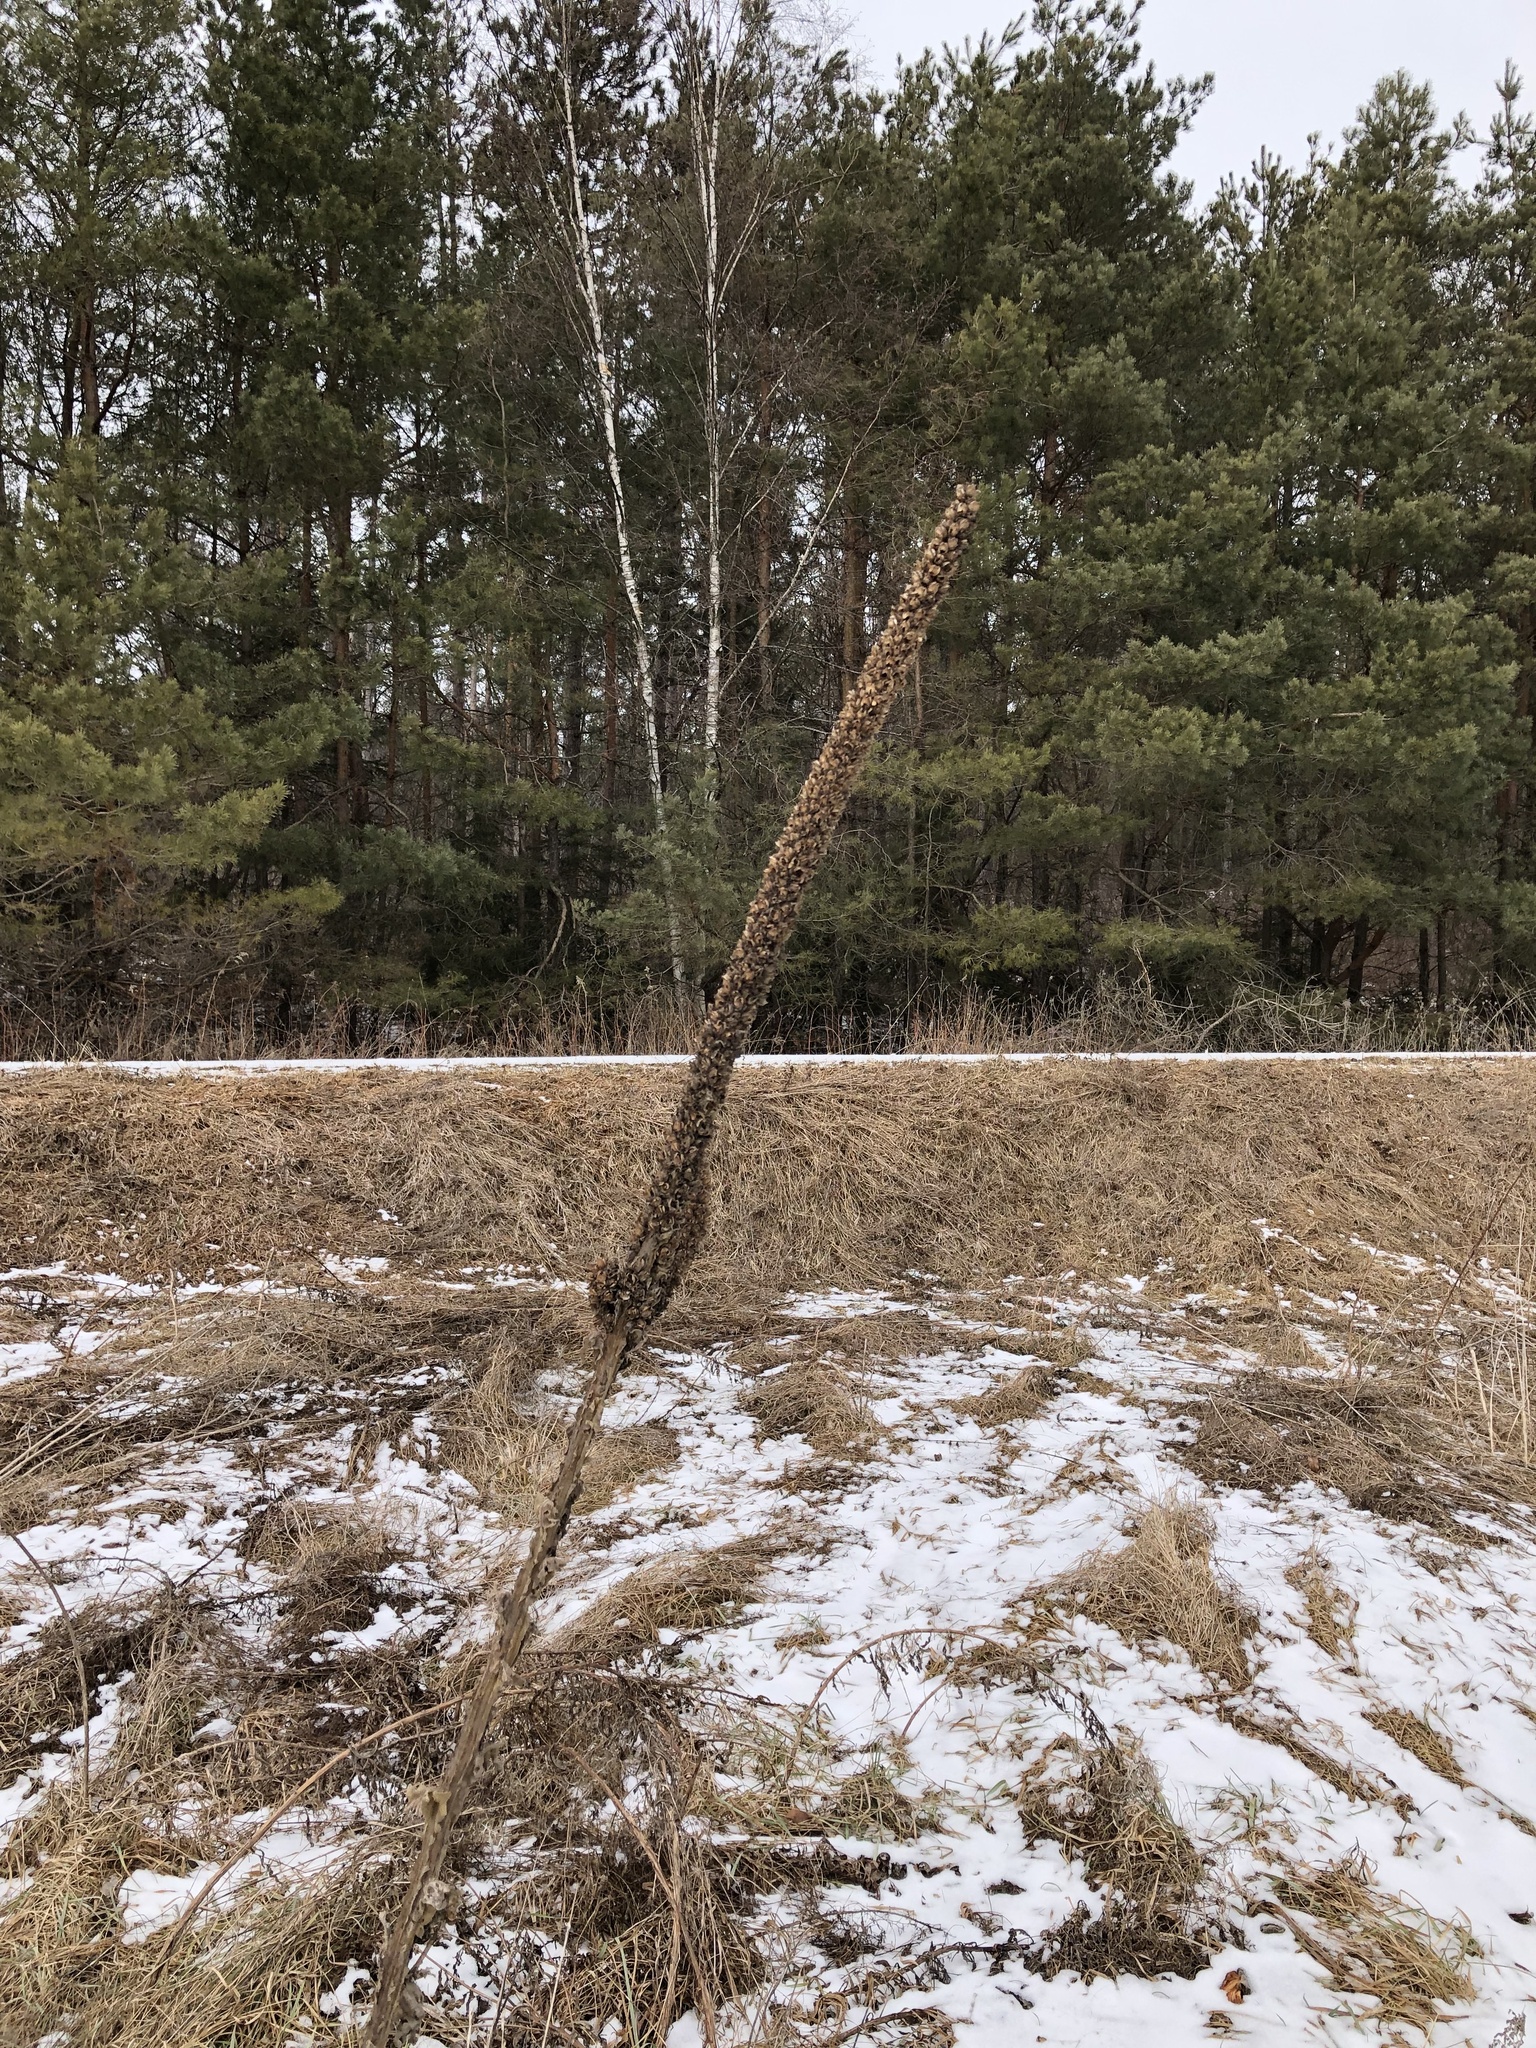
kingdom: Plantae
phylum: Tracheophyta
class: Magnoliopsida
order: Lamiales
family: Scrophulariaceae
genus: Verbascum
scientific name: Verbascum thapsus
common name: Common mullein
